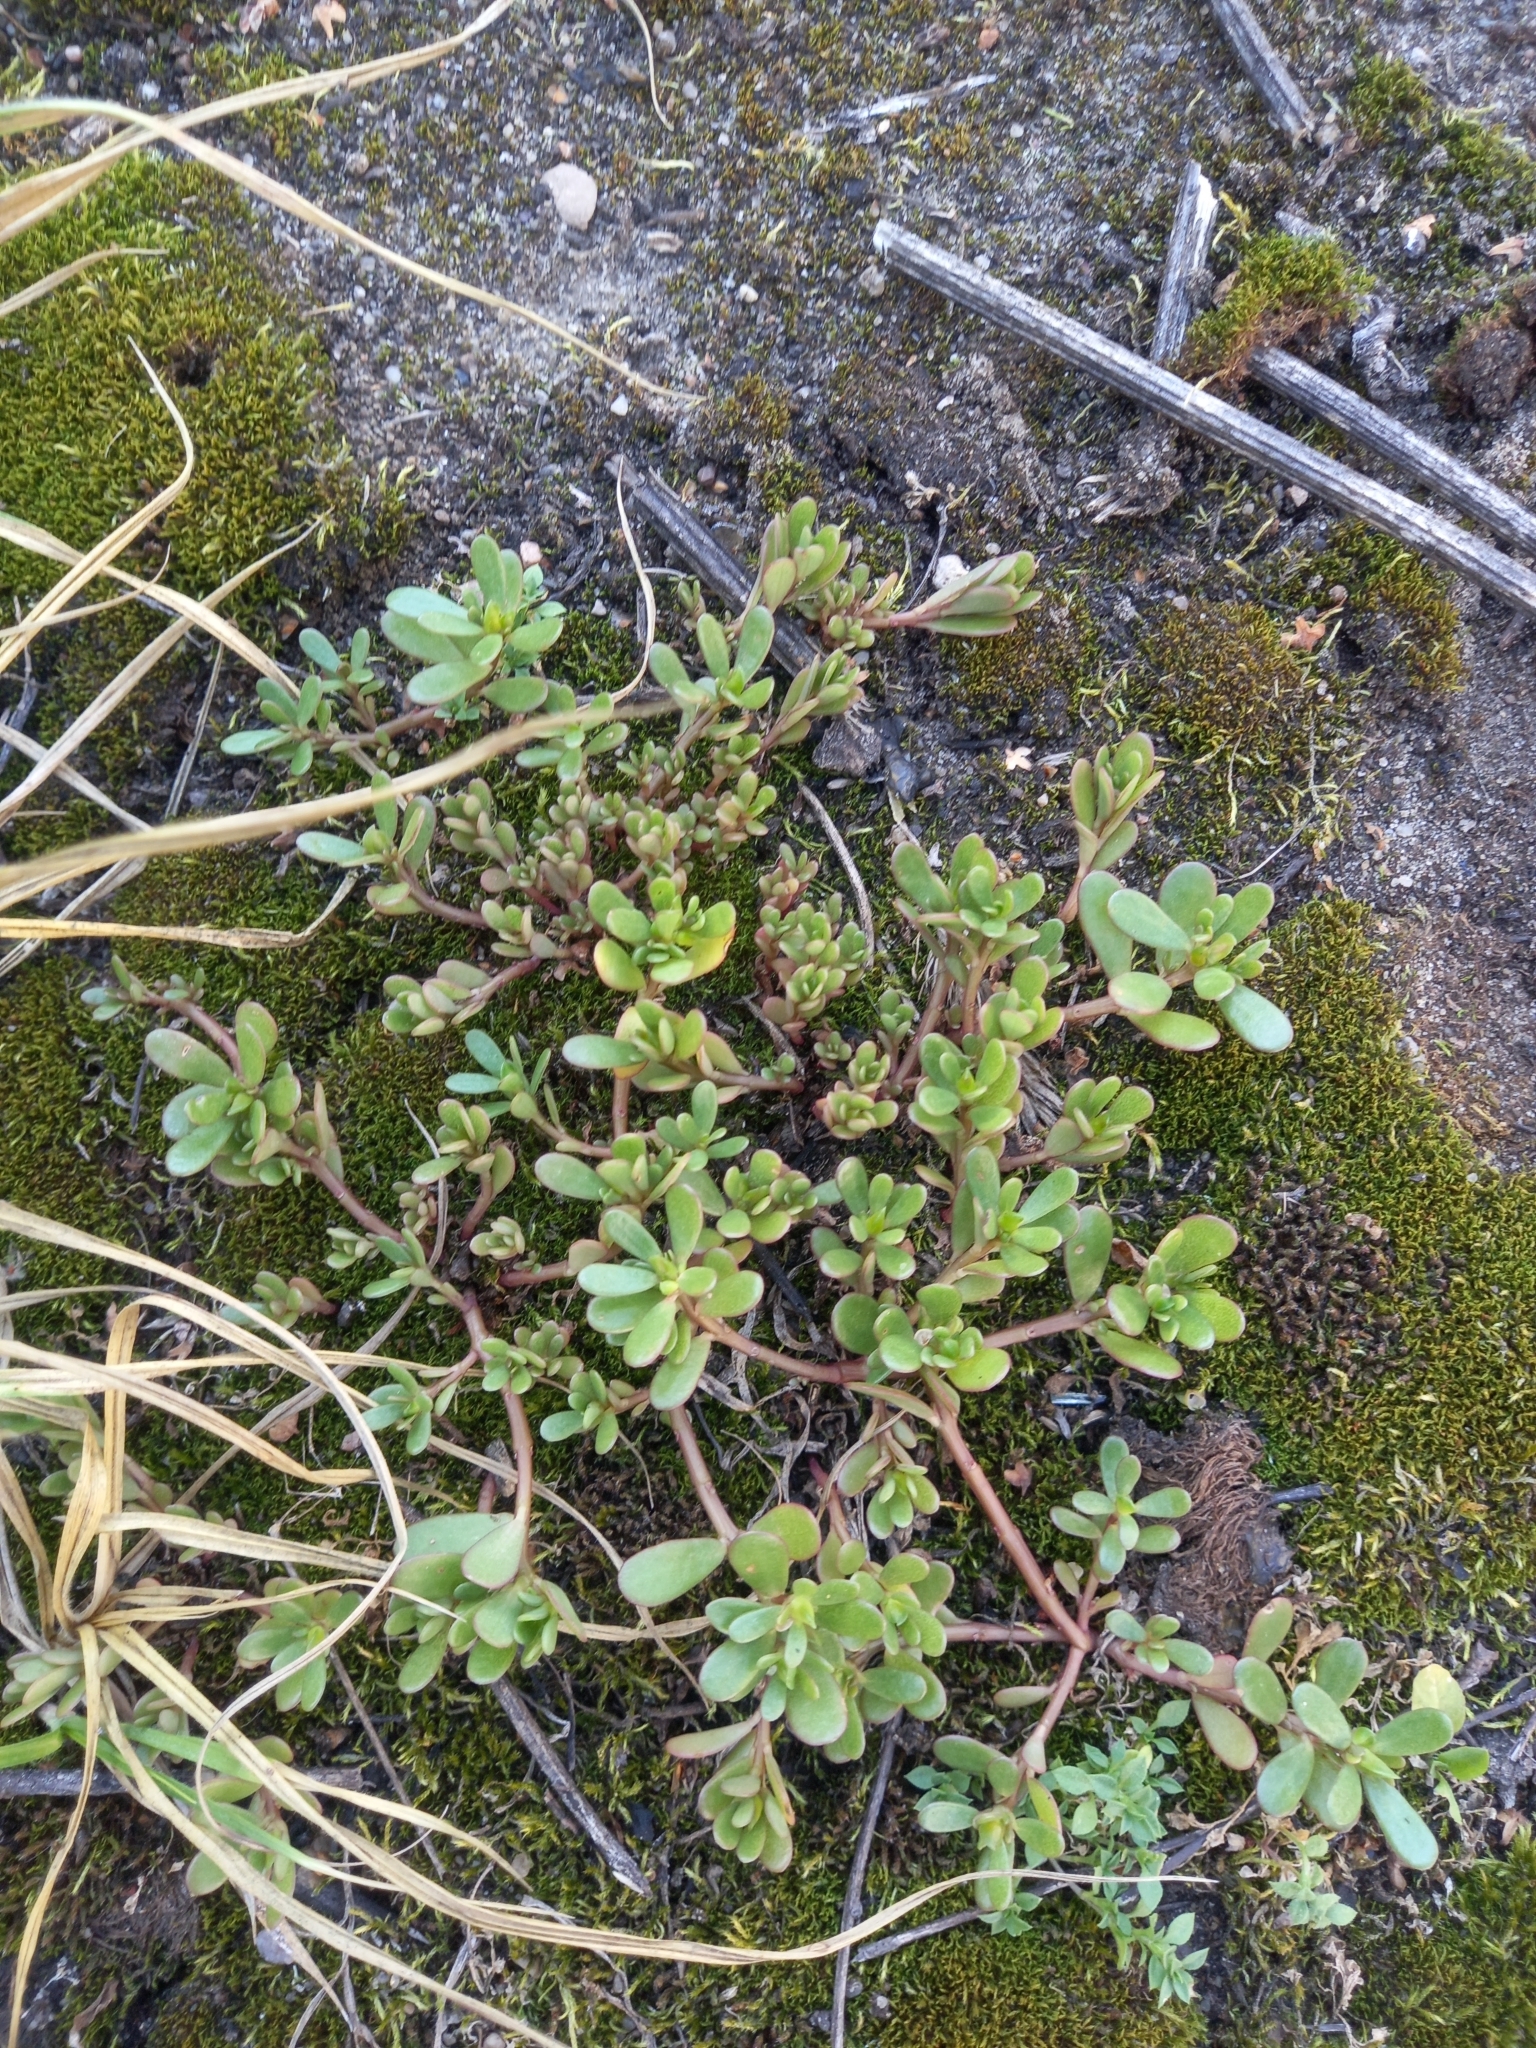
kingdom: Plantae
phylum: Tracheophyta
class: Magnoliopsida
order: Caryophyllales
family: Portulacaceae
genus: Portulaca
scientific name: Portulaca oleracea
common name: Common purslane
